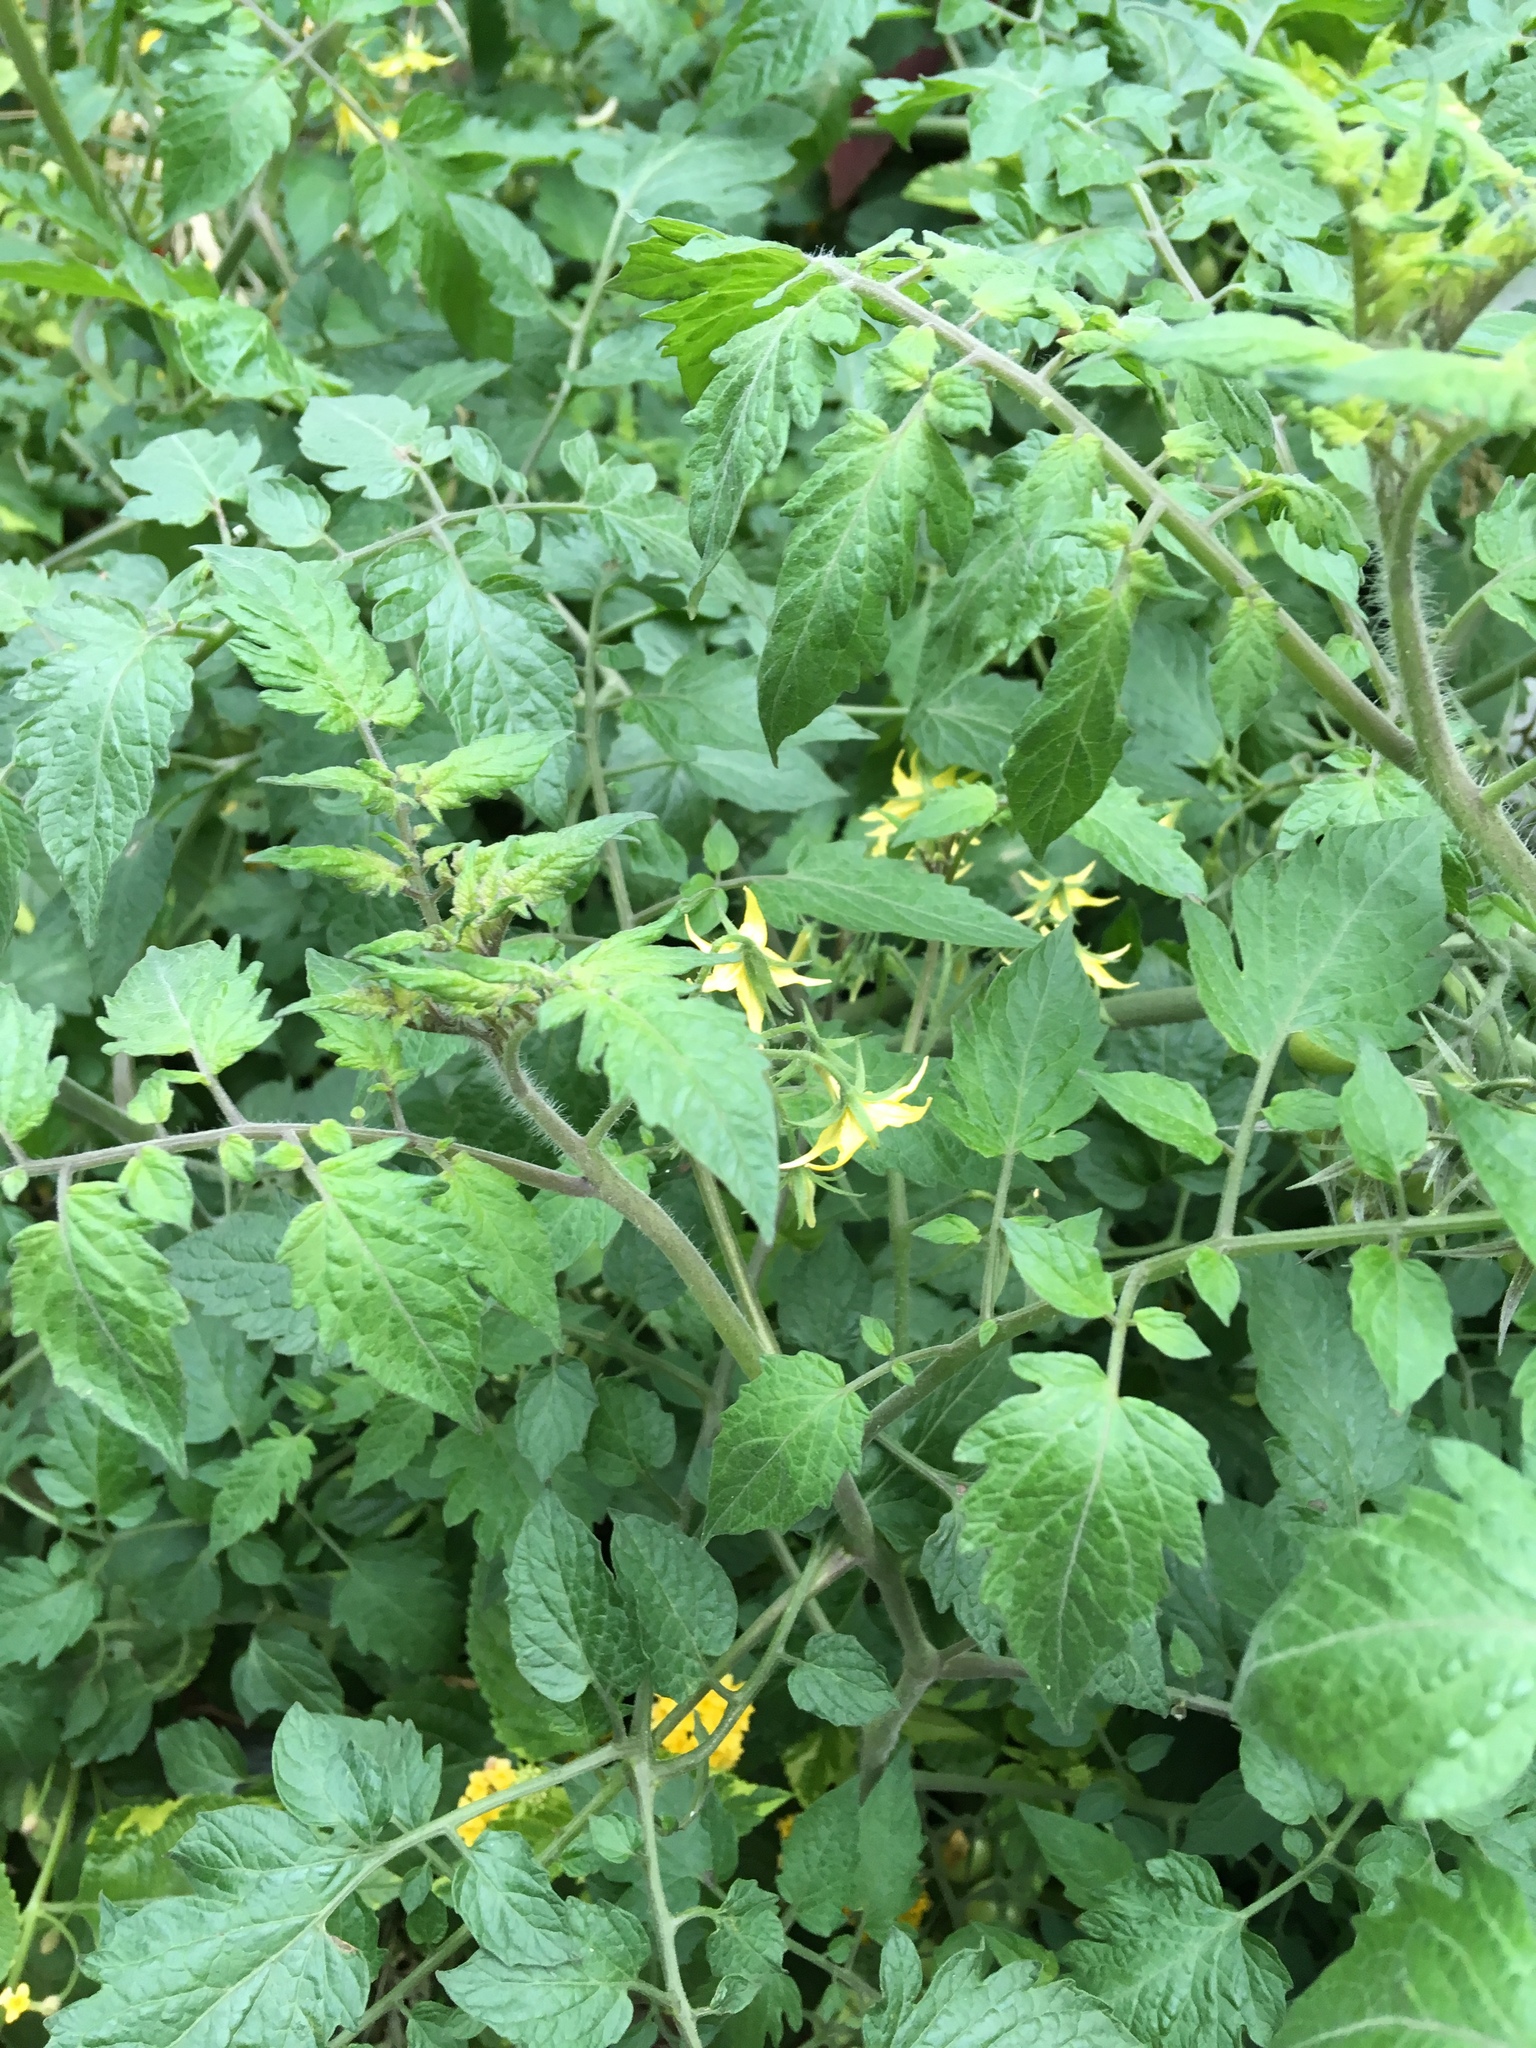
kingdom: Plantae
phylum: Tracheophyta
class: Magnoliopsida
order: Solanales
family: Solanaceae
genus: Solanum
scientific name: Solanum lycopersicum
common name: Garden tomato
